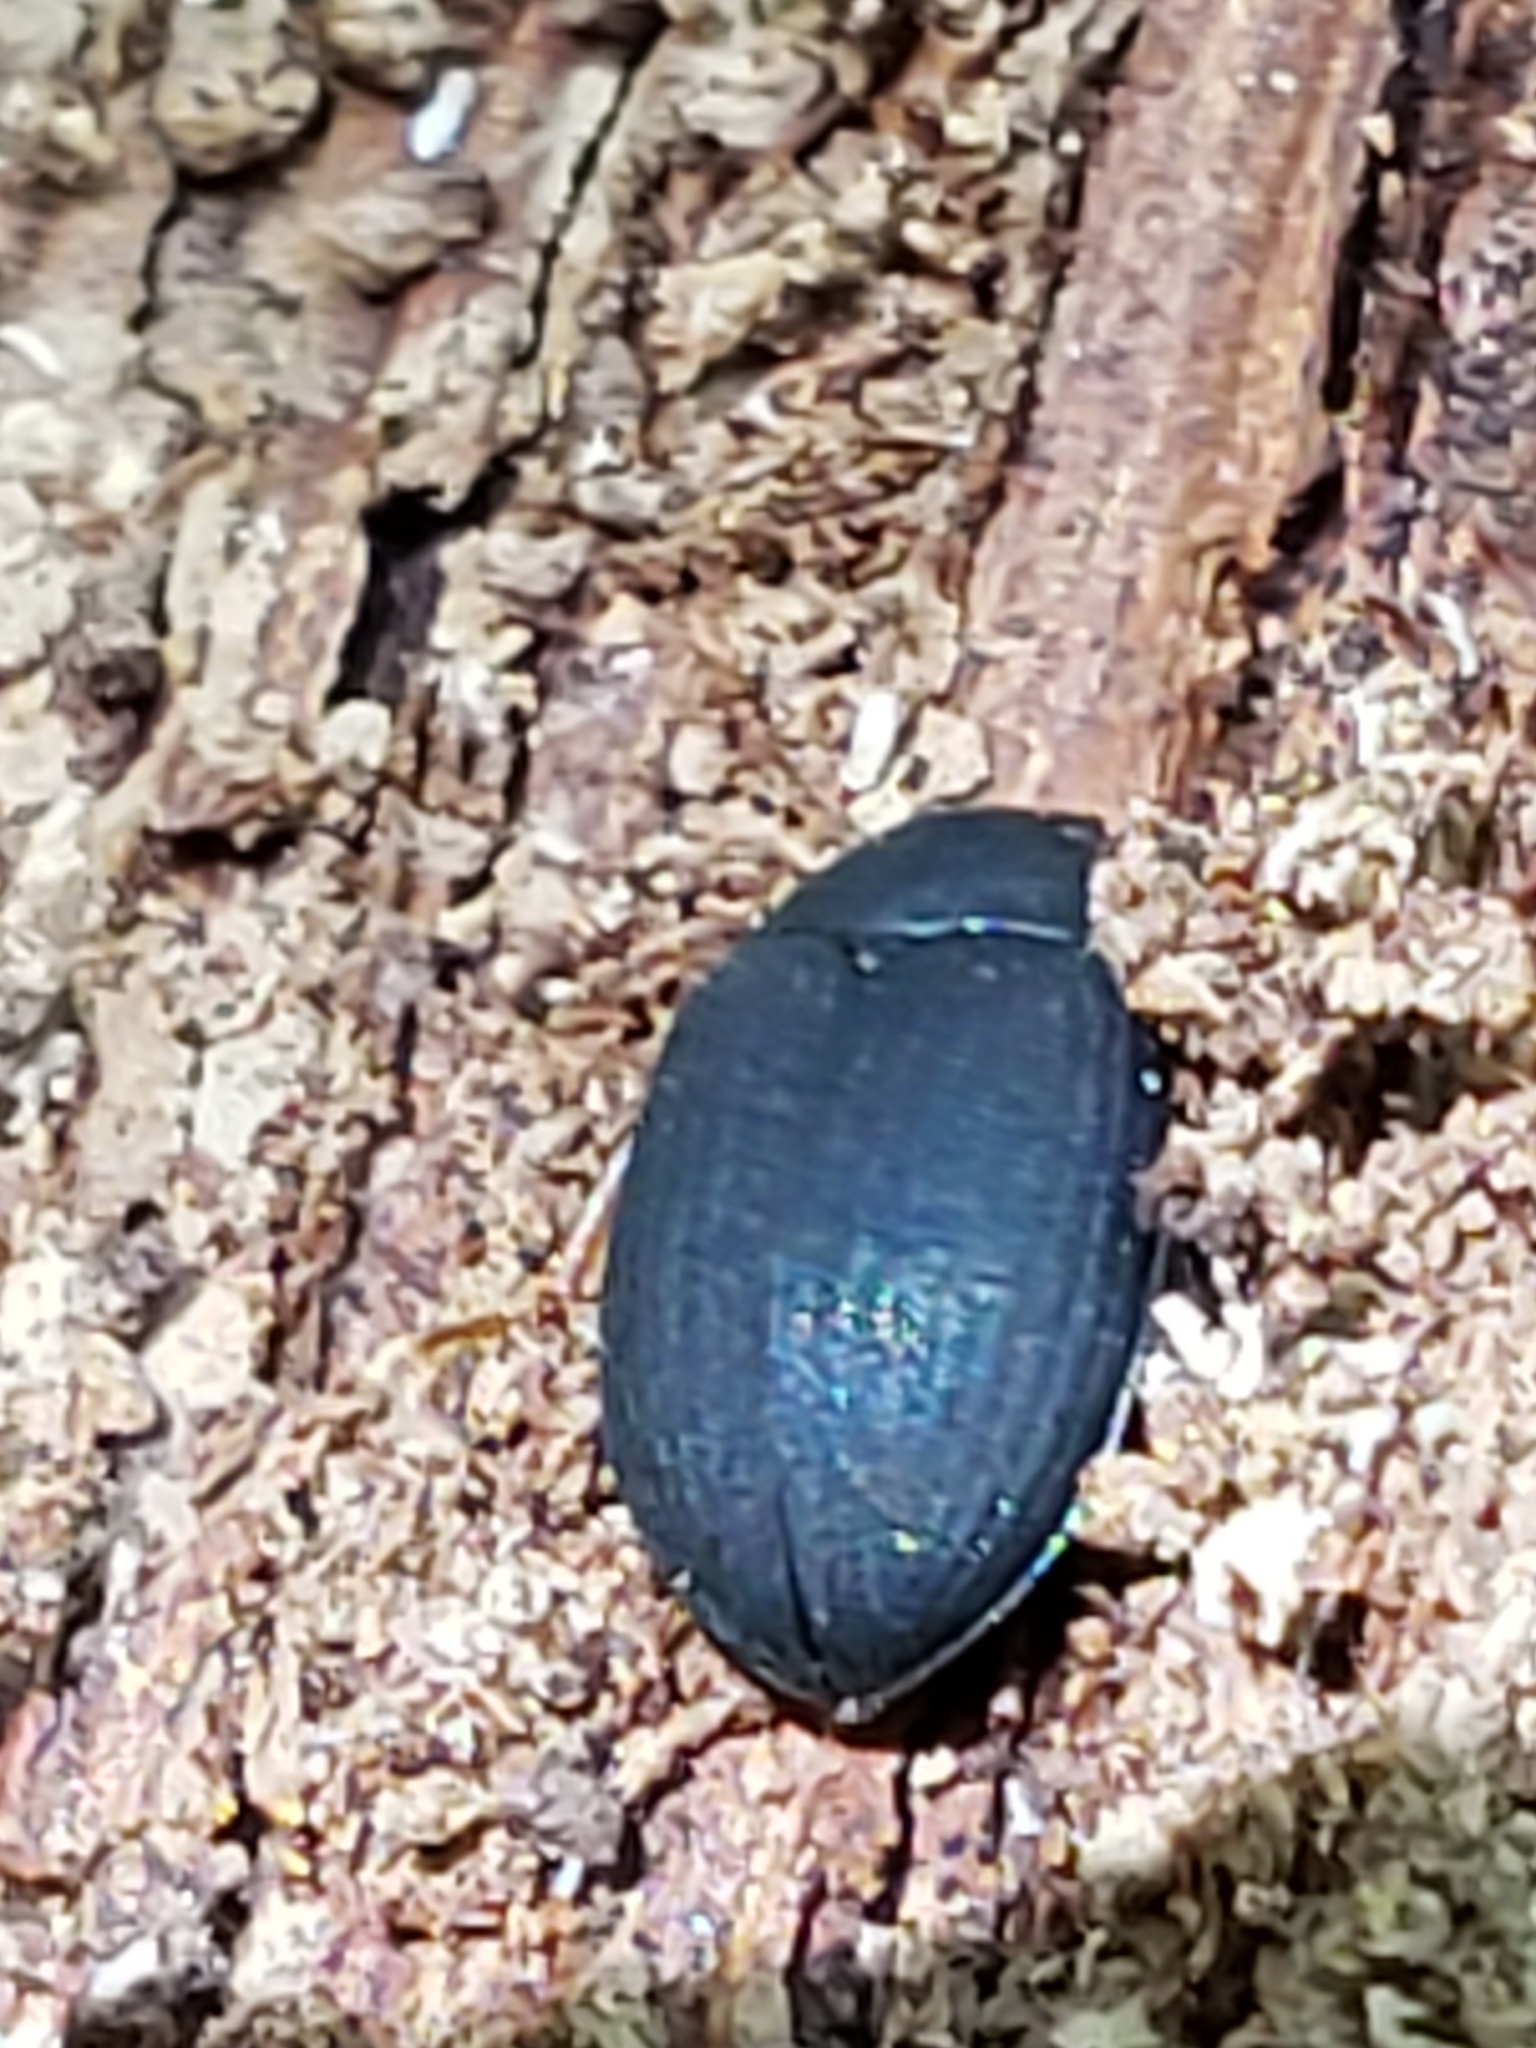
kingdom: Animalia
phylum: Arthropoda
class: Insecta
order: Coleoptera
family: Tenebrionidae
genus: Platydema
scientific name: Platydema ruficornis
